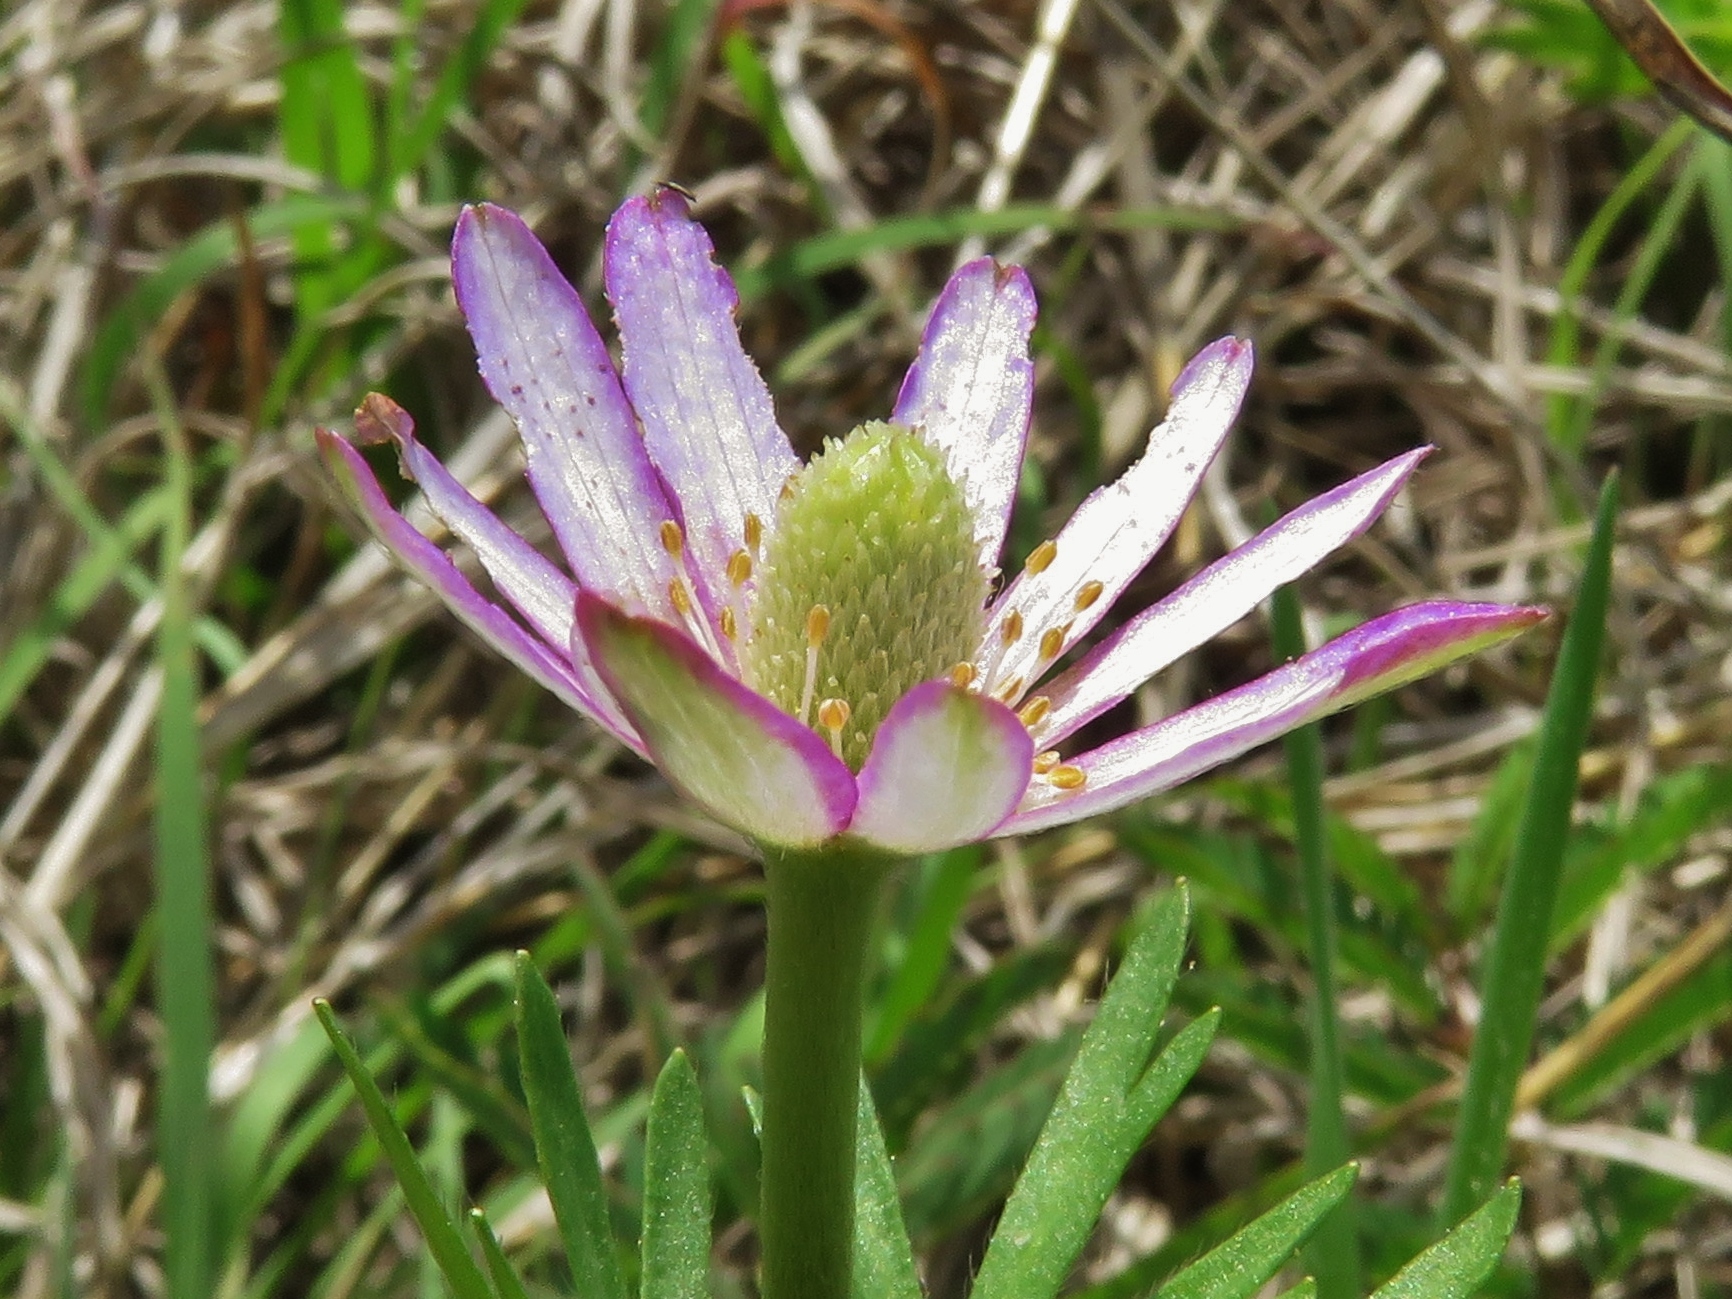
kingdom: Plantae
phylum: Tracheophyta
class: Magnoliopsida
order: Ranunculales
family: Ranunculaceae
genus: Anemone
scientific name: Anemone berlandieri
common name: Ten-petal anemone
